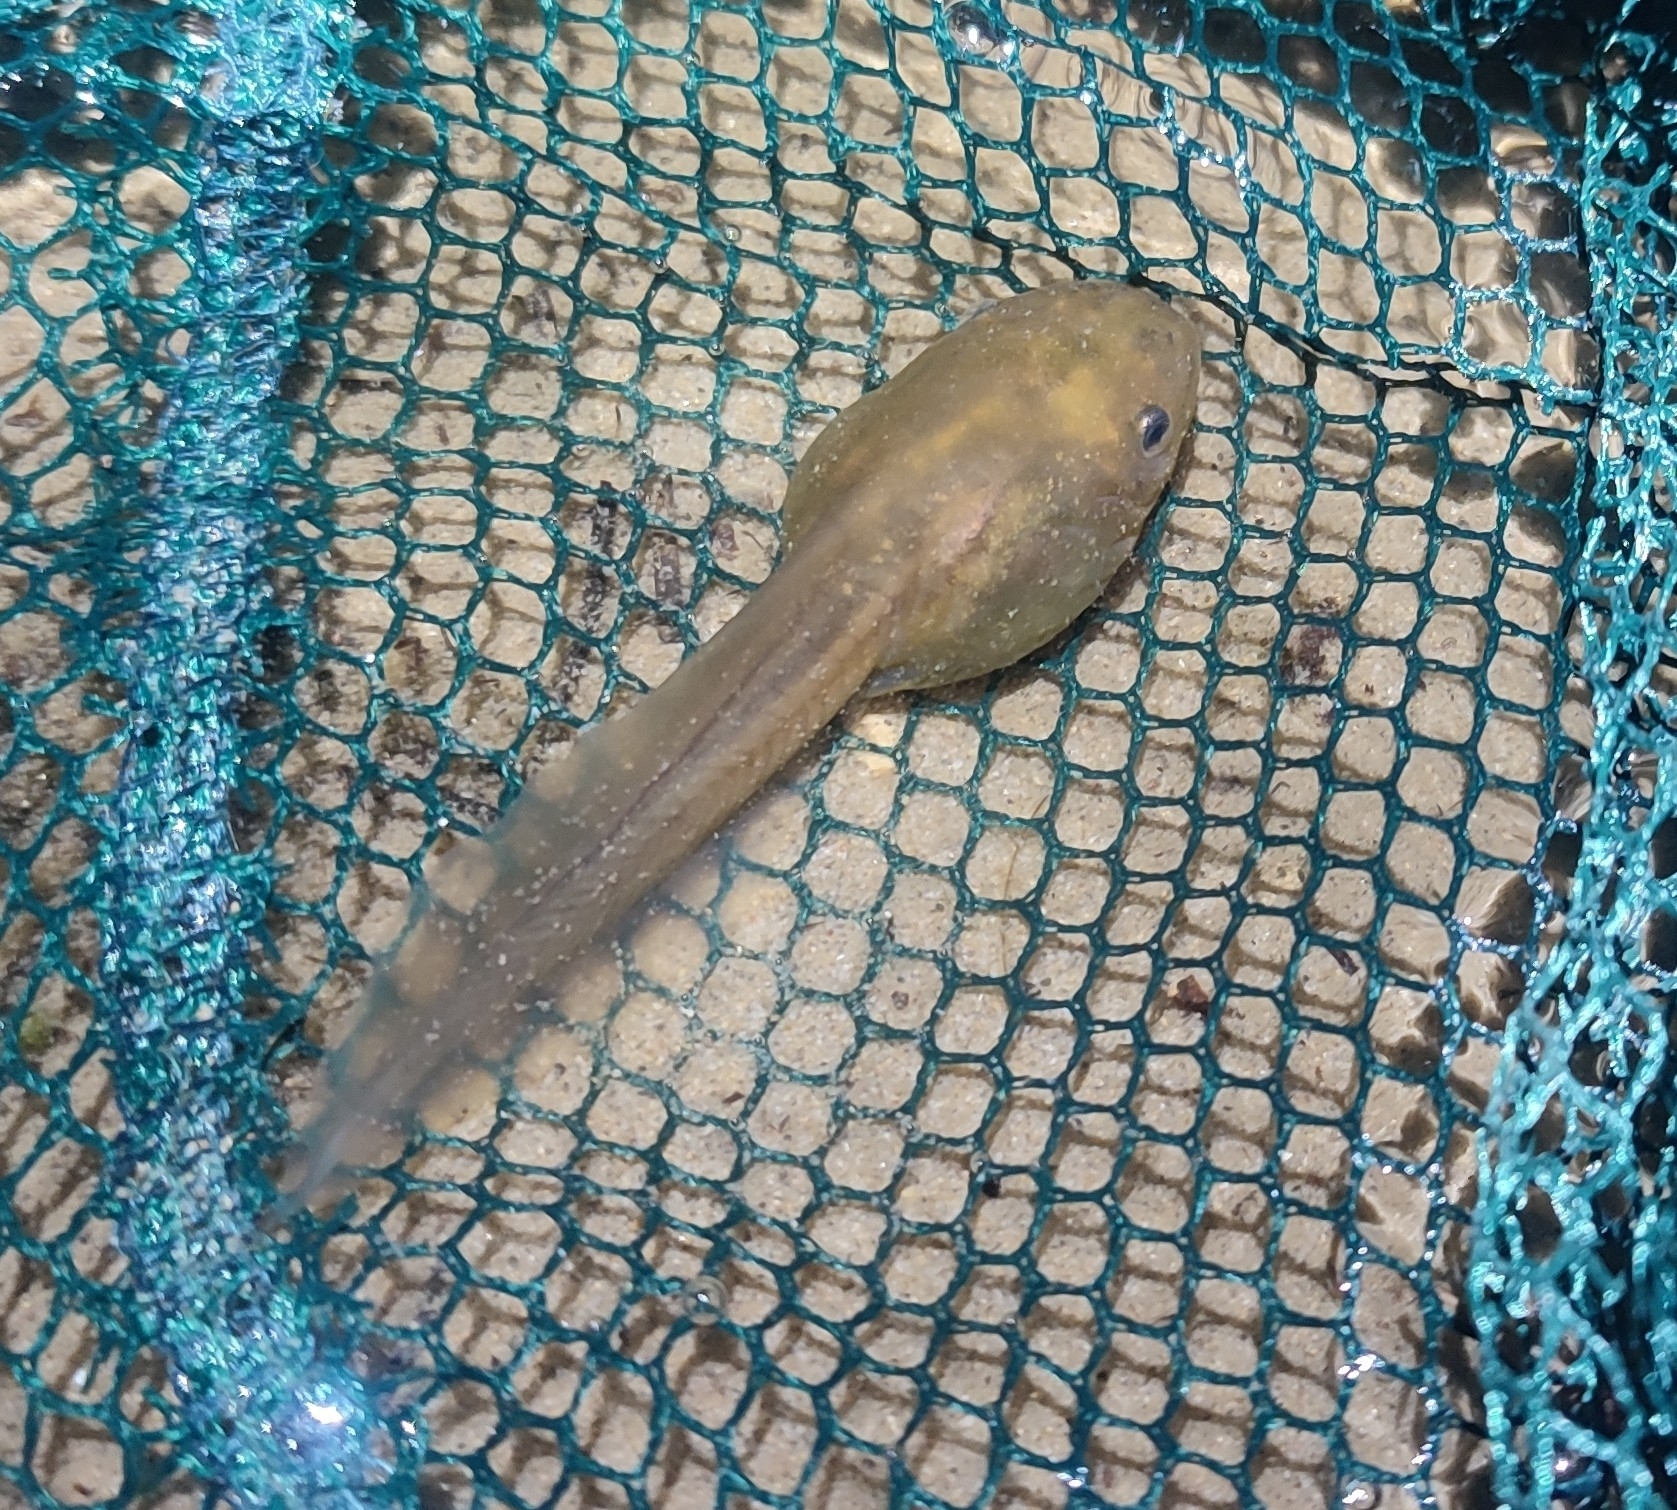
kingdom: Animalia
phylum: Chordata
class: Amphibia
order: Anura
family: Pelobatidae
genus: Pelobates
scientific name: Pelobates cultripes
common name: Western spadefoot
